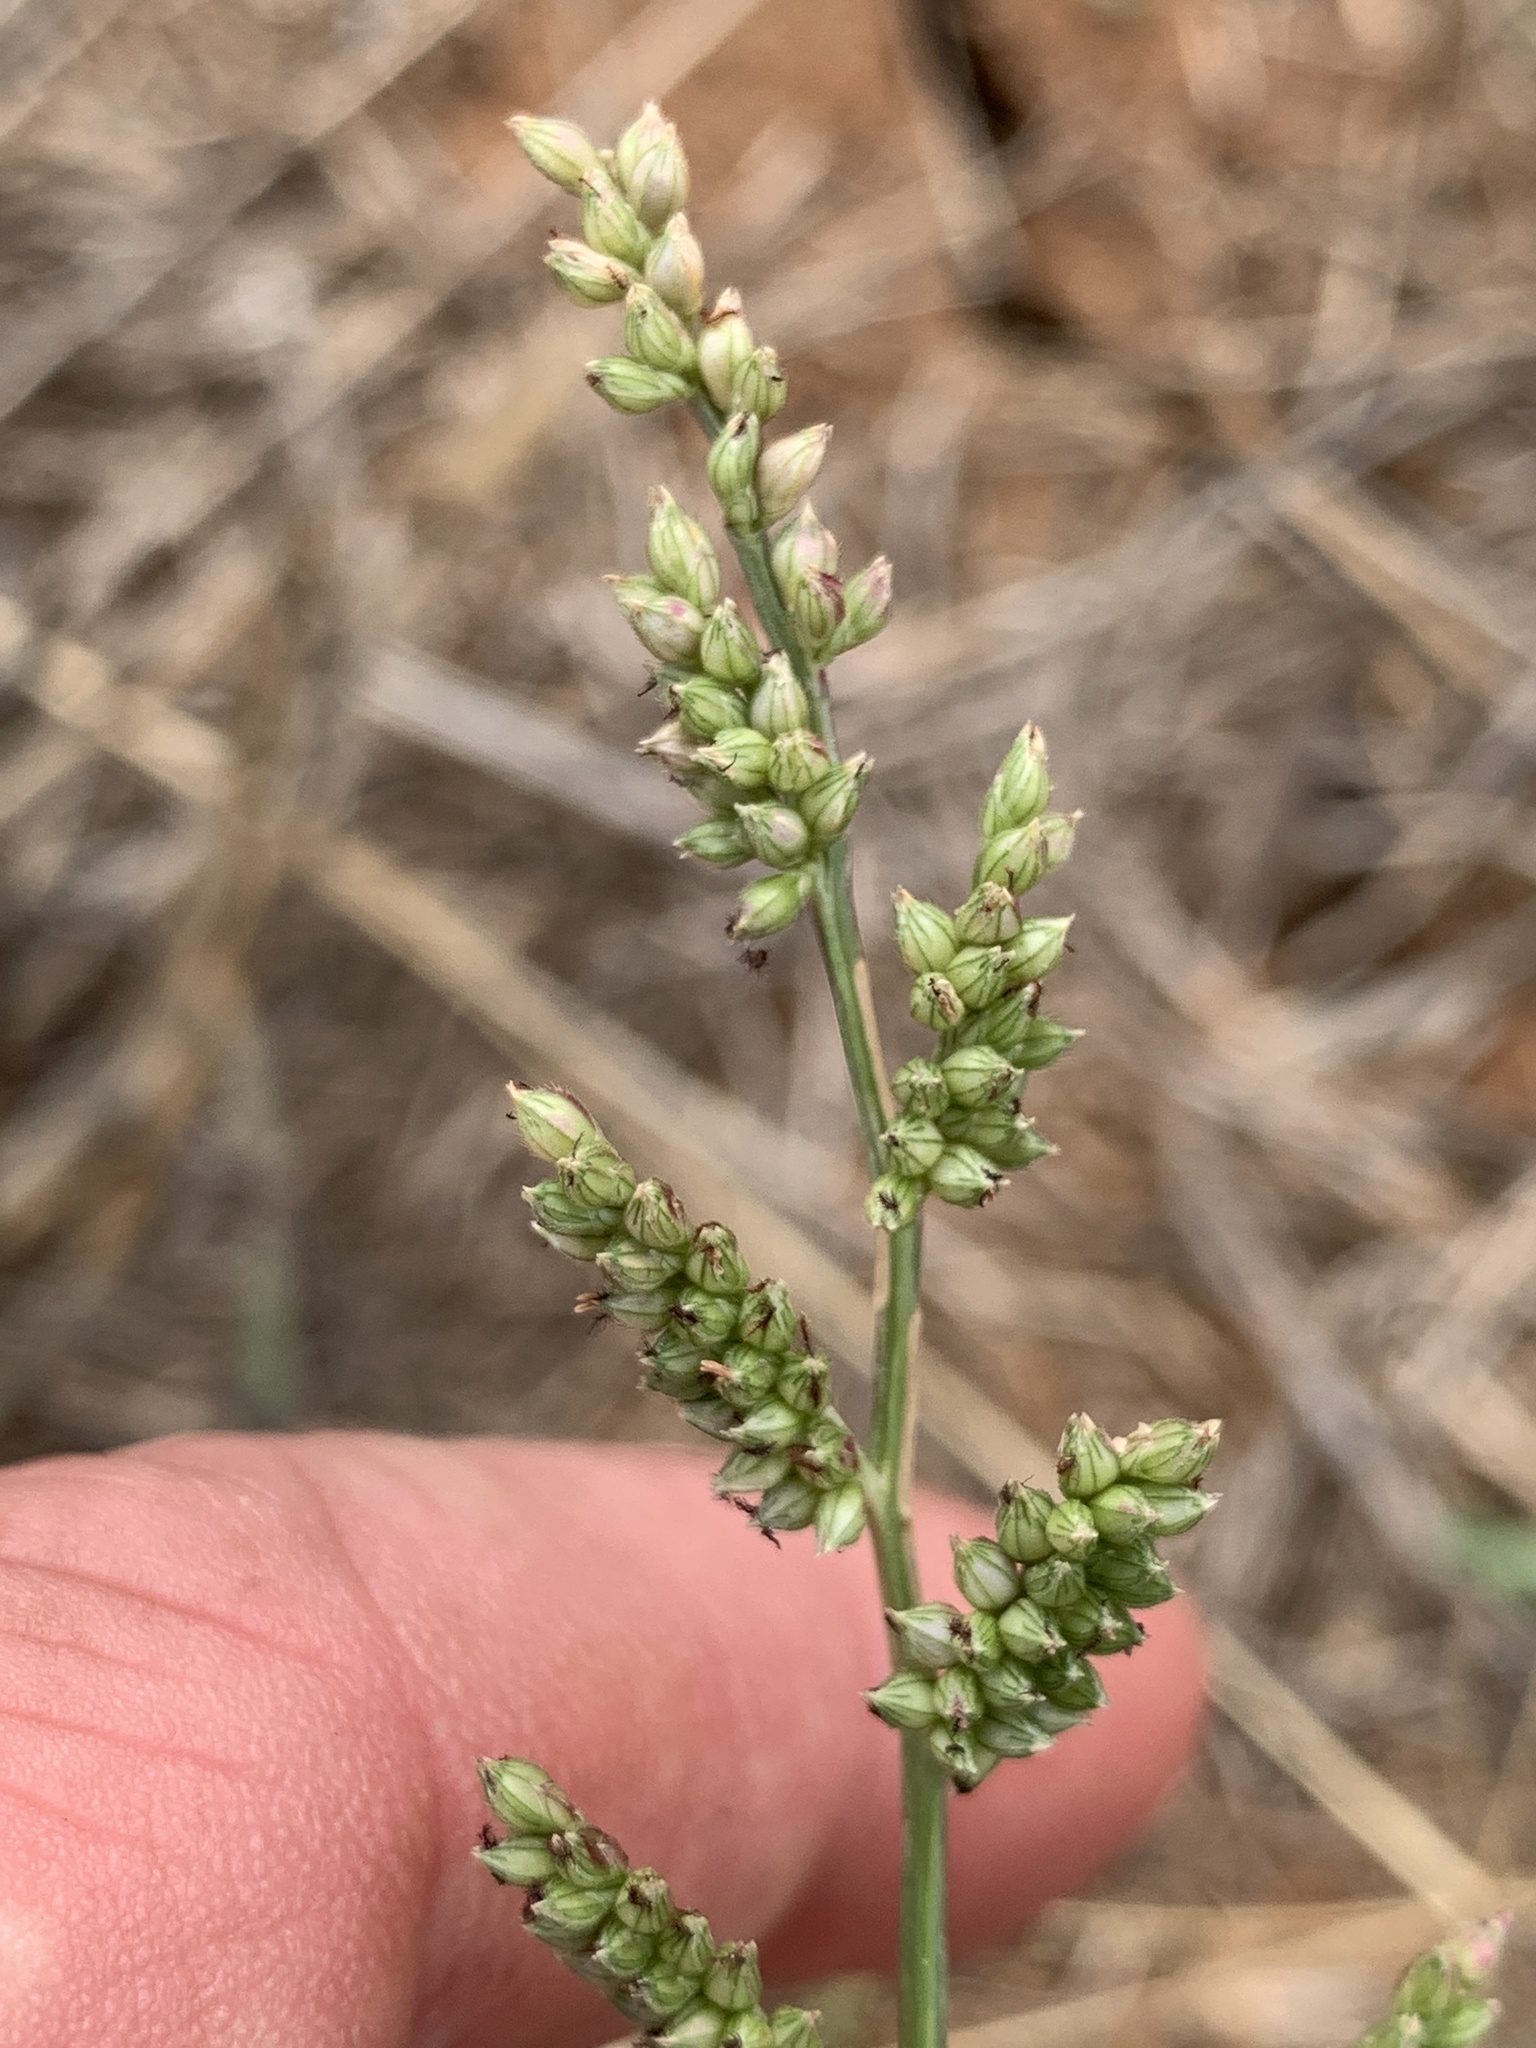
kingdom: Plantae
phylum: Tracheophyta
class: Liliopsida
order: Poales
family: Poaceae
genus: Echinochloa
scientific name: Echinochloa colonum
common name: Jungle rice
